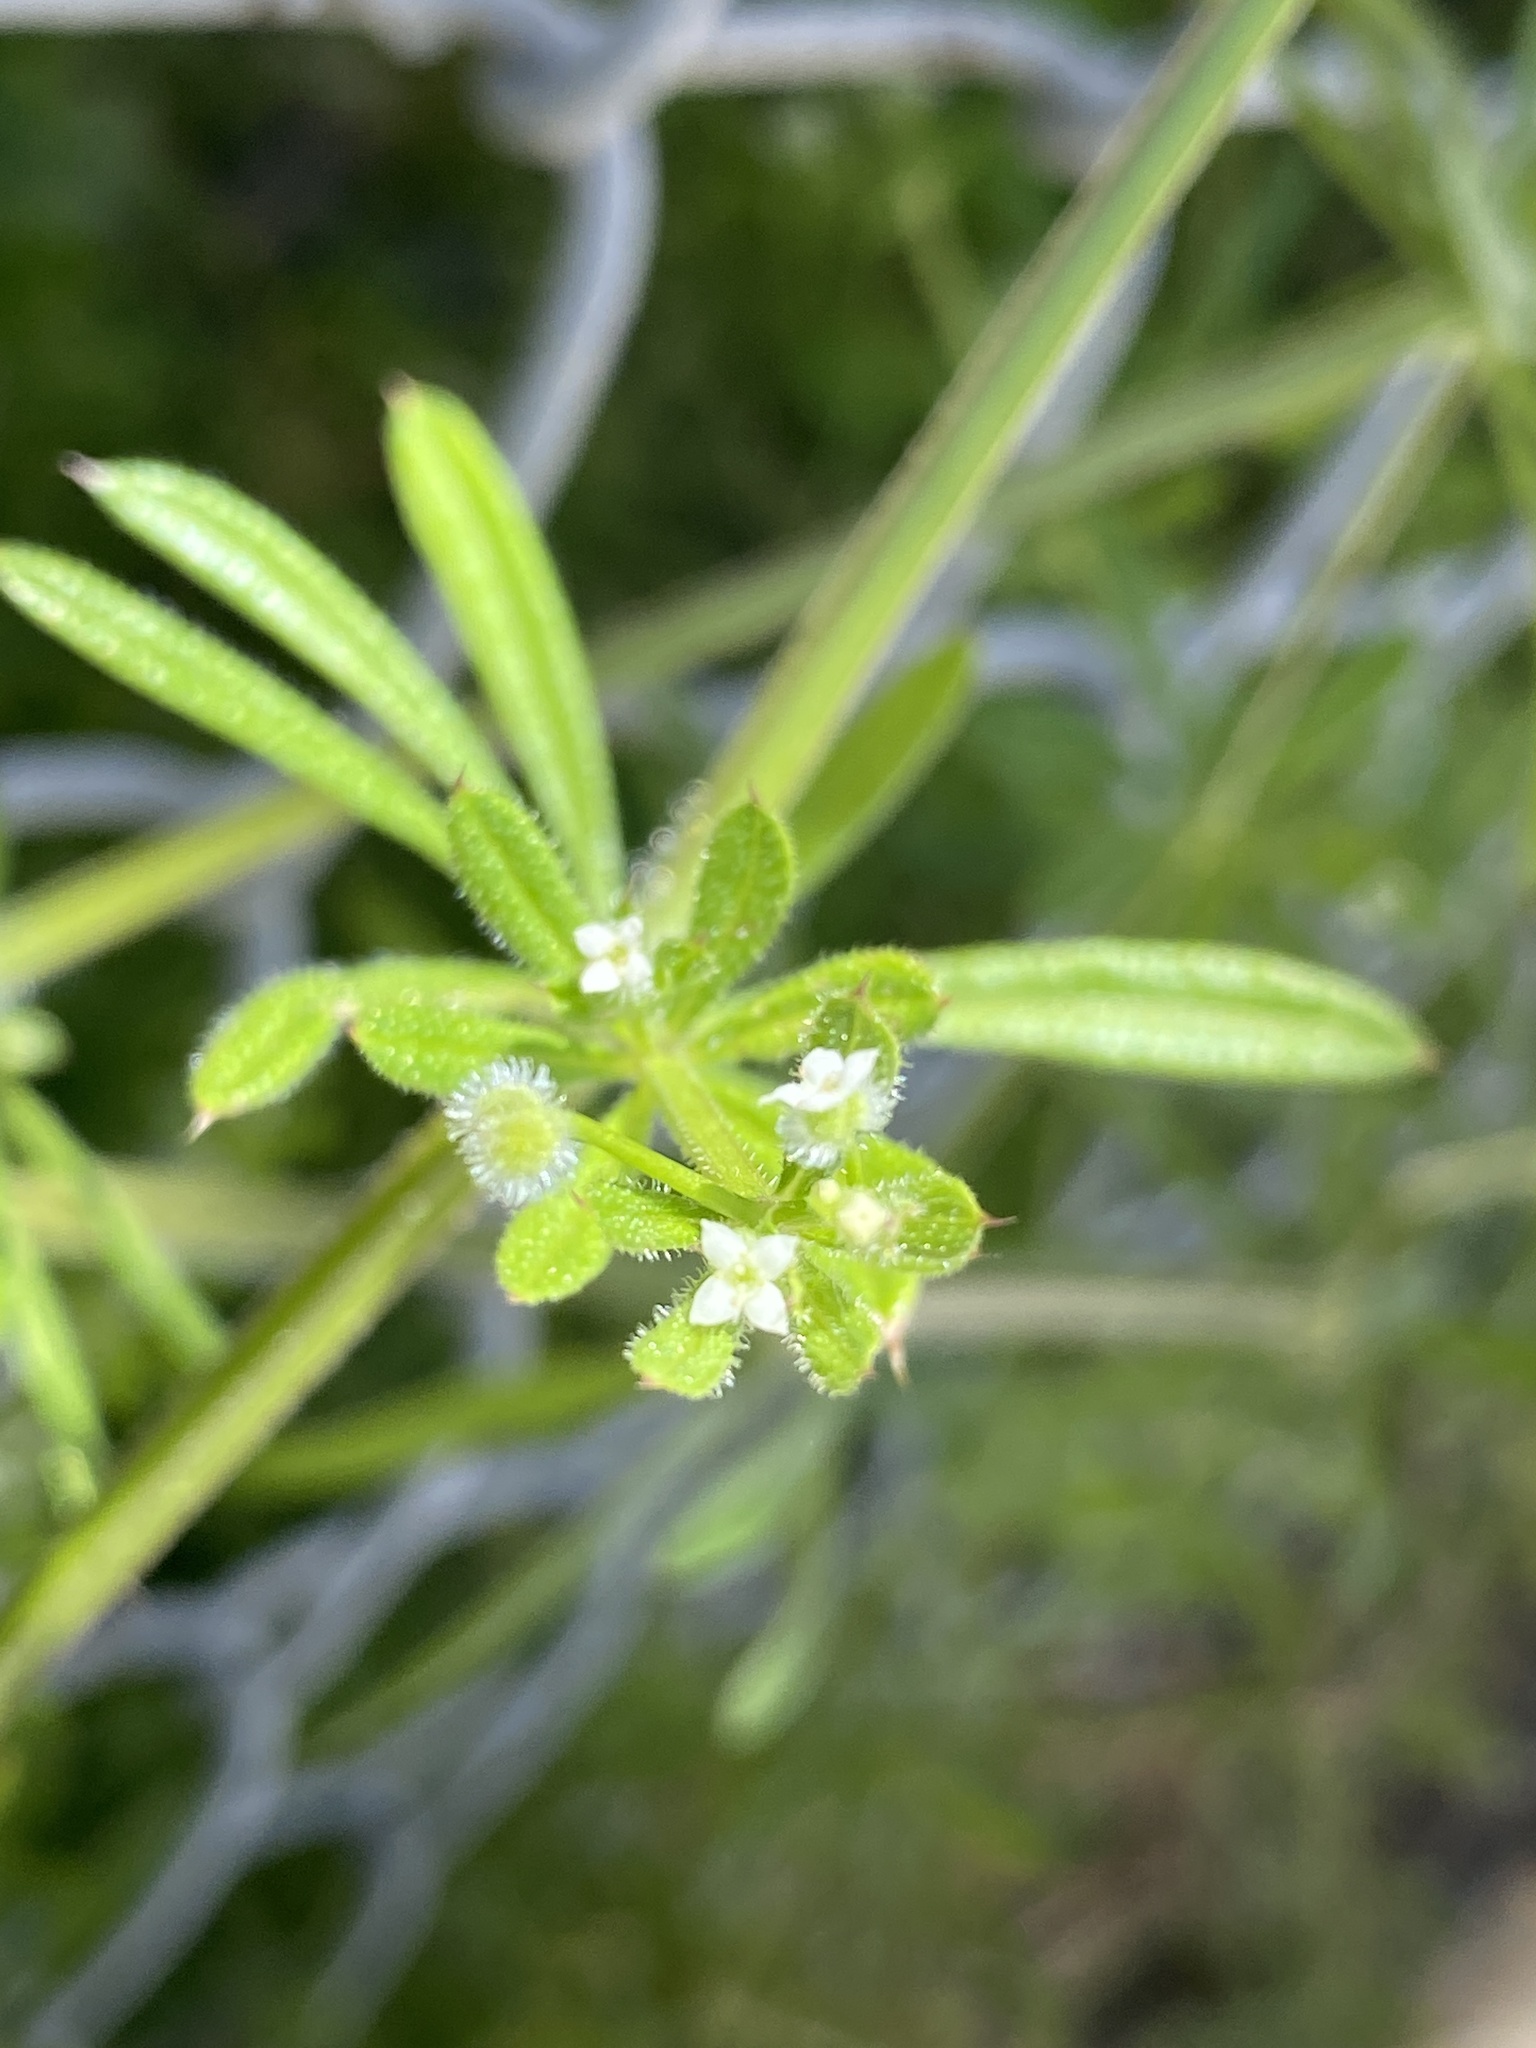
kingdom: Plantae
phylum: Tracheophyta
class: Magnoliopsida
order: Gentianales
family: Rubiaceae
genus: Galium
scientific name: Galium aparine
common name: Cleavers
